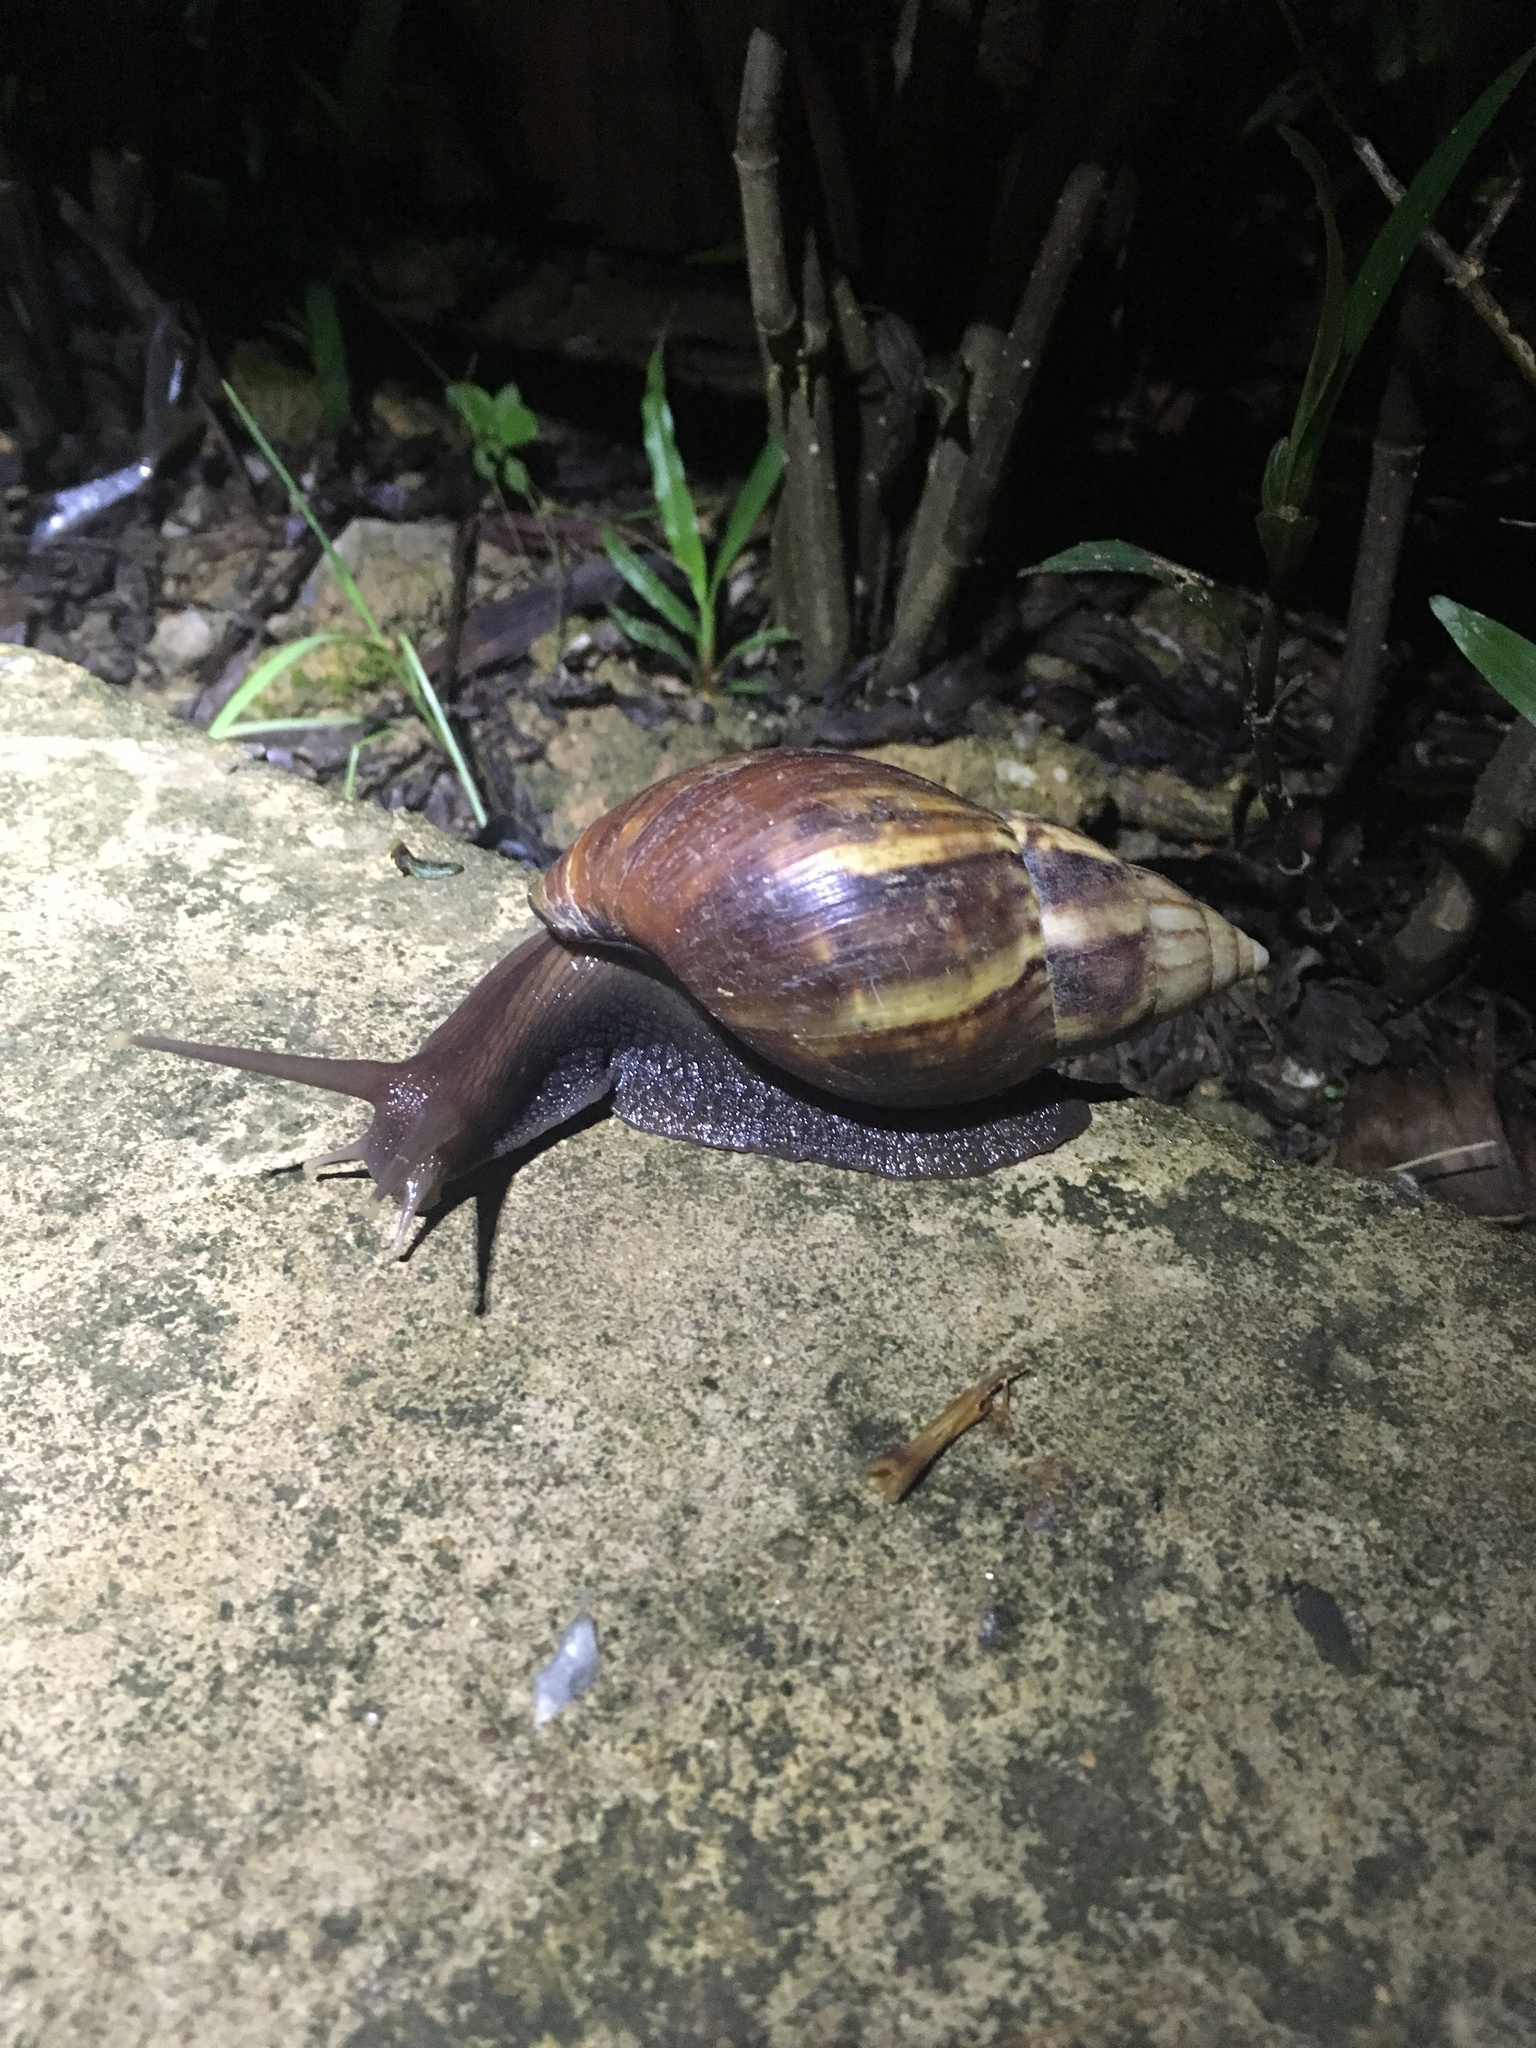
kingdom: Animalia
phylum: Mollusca
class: Gastropoda
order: Stylommatophora
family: Achatinidae
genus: Lissachatina
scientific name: Lissachatina fulica
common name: Giant african snail
